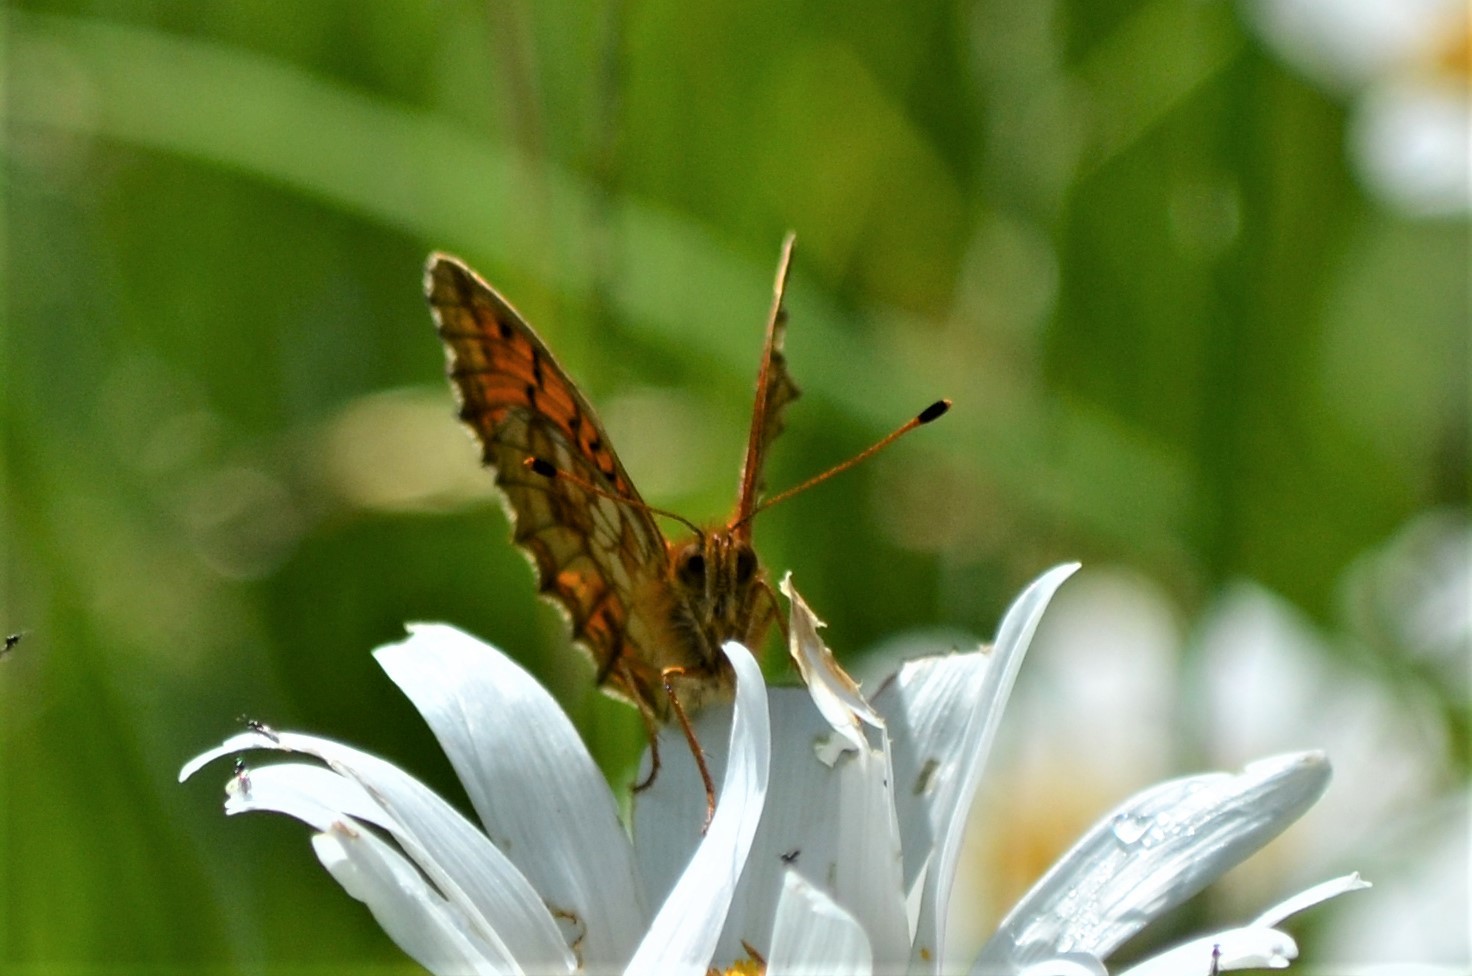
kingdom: Animalia
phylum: Arthropoda
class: Insecta
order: Lepidoptera
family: Nymphalidae
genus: Brenthis
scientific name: Brenthis ino
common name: Lesser marbled fritillary
